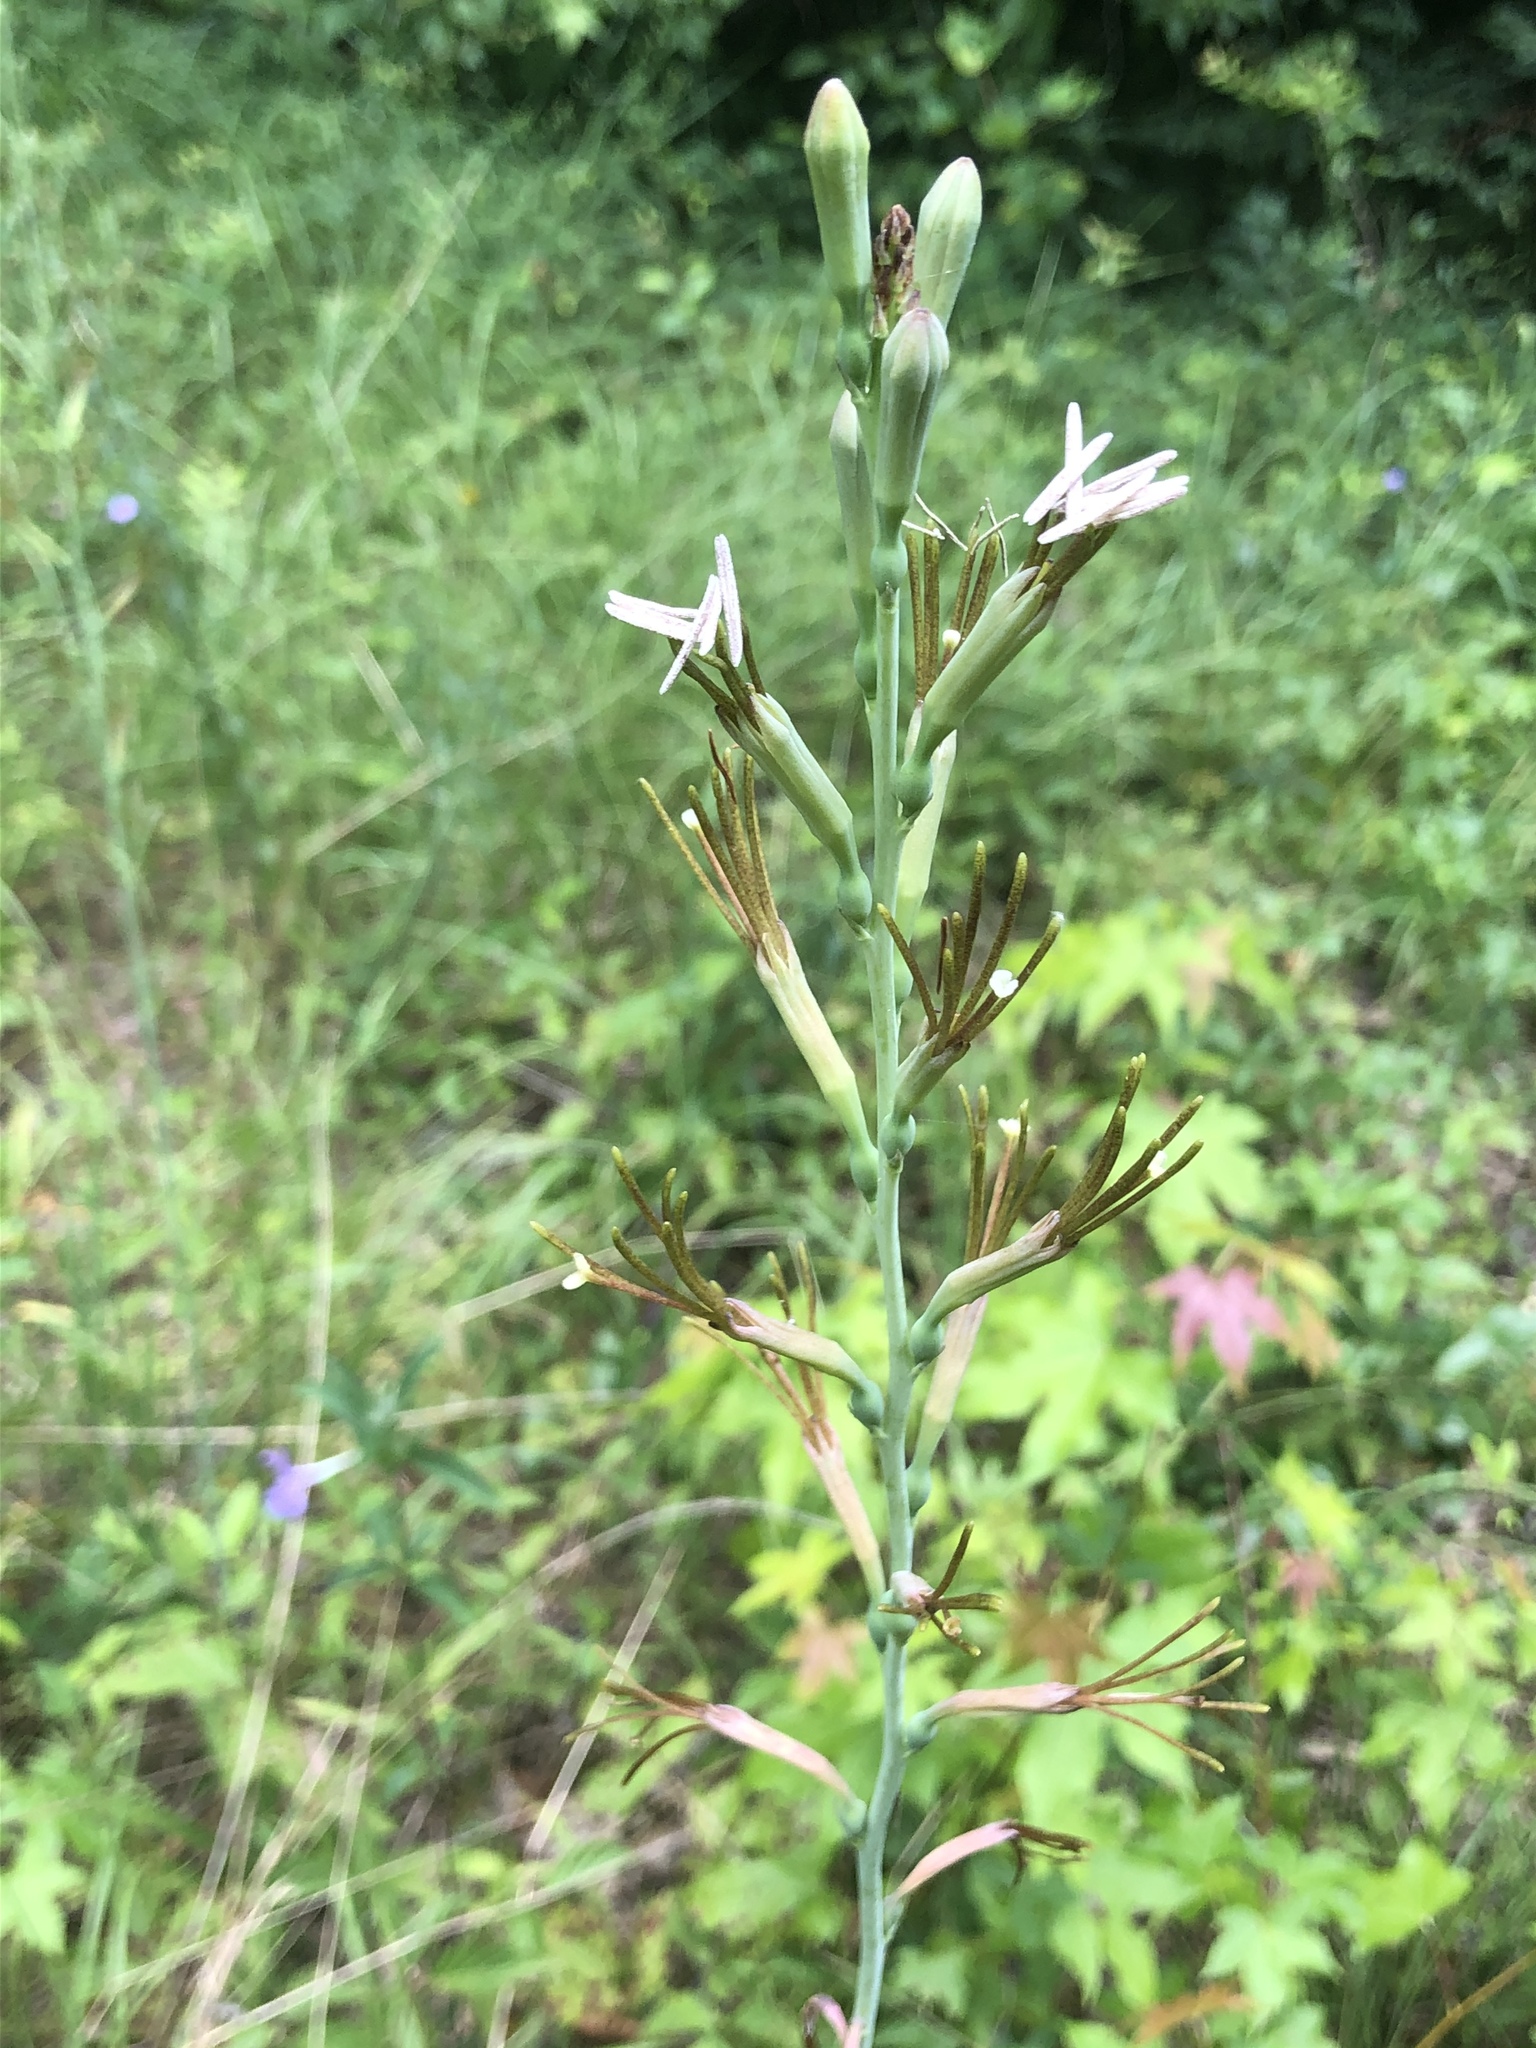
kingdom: Plantae
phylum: Tracheophyta
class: Liliopsida
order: Asparagales
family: Asparagaceae
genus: Agave
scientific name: Agave virginica
